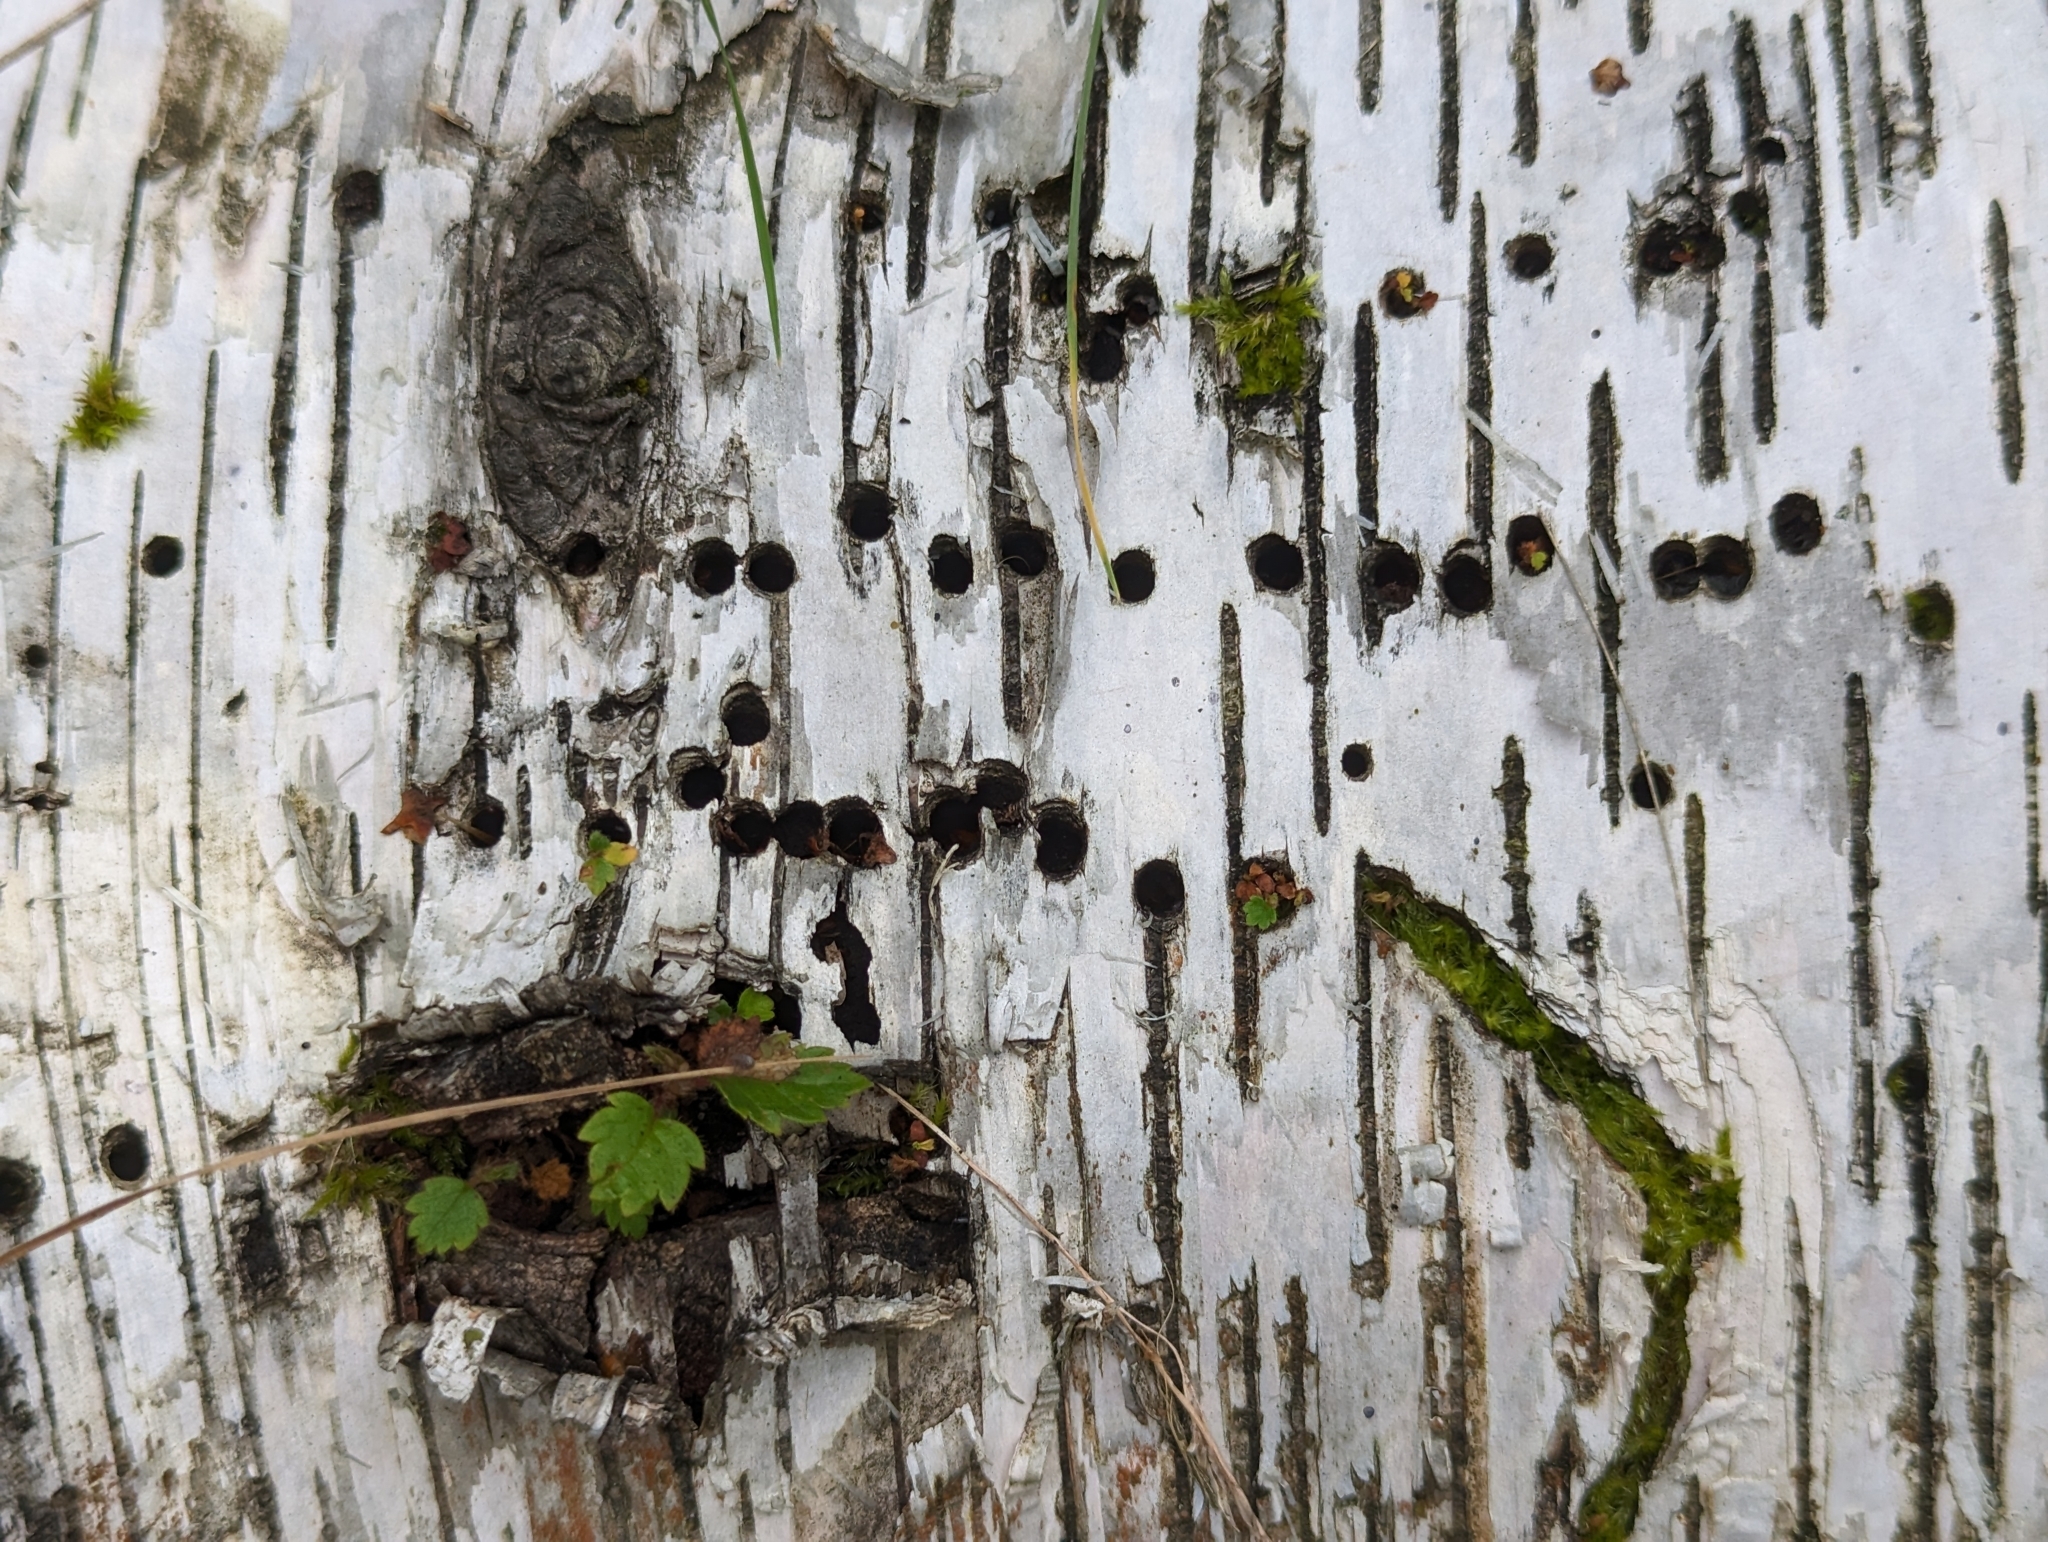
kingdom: Animalia
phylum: Arthropoda
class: Insecta
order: Coleoptera
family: Curculionidae
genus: Scolytus
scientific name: Scolytus ratzeburgii
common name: Birch bark beetle
